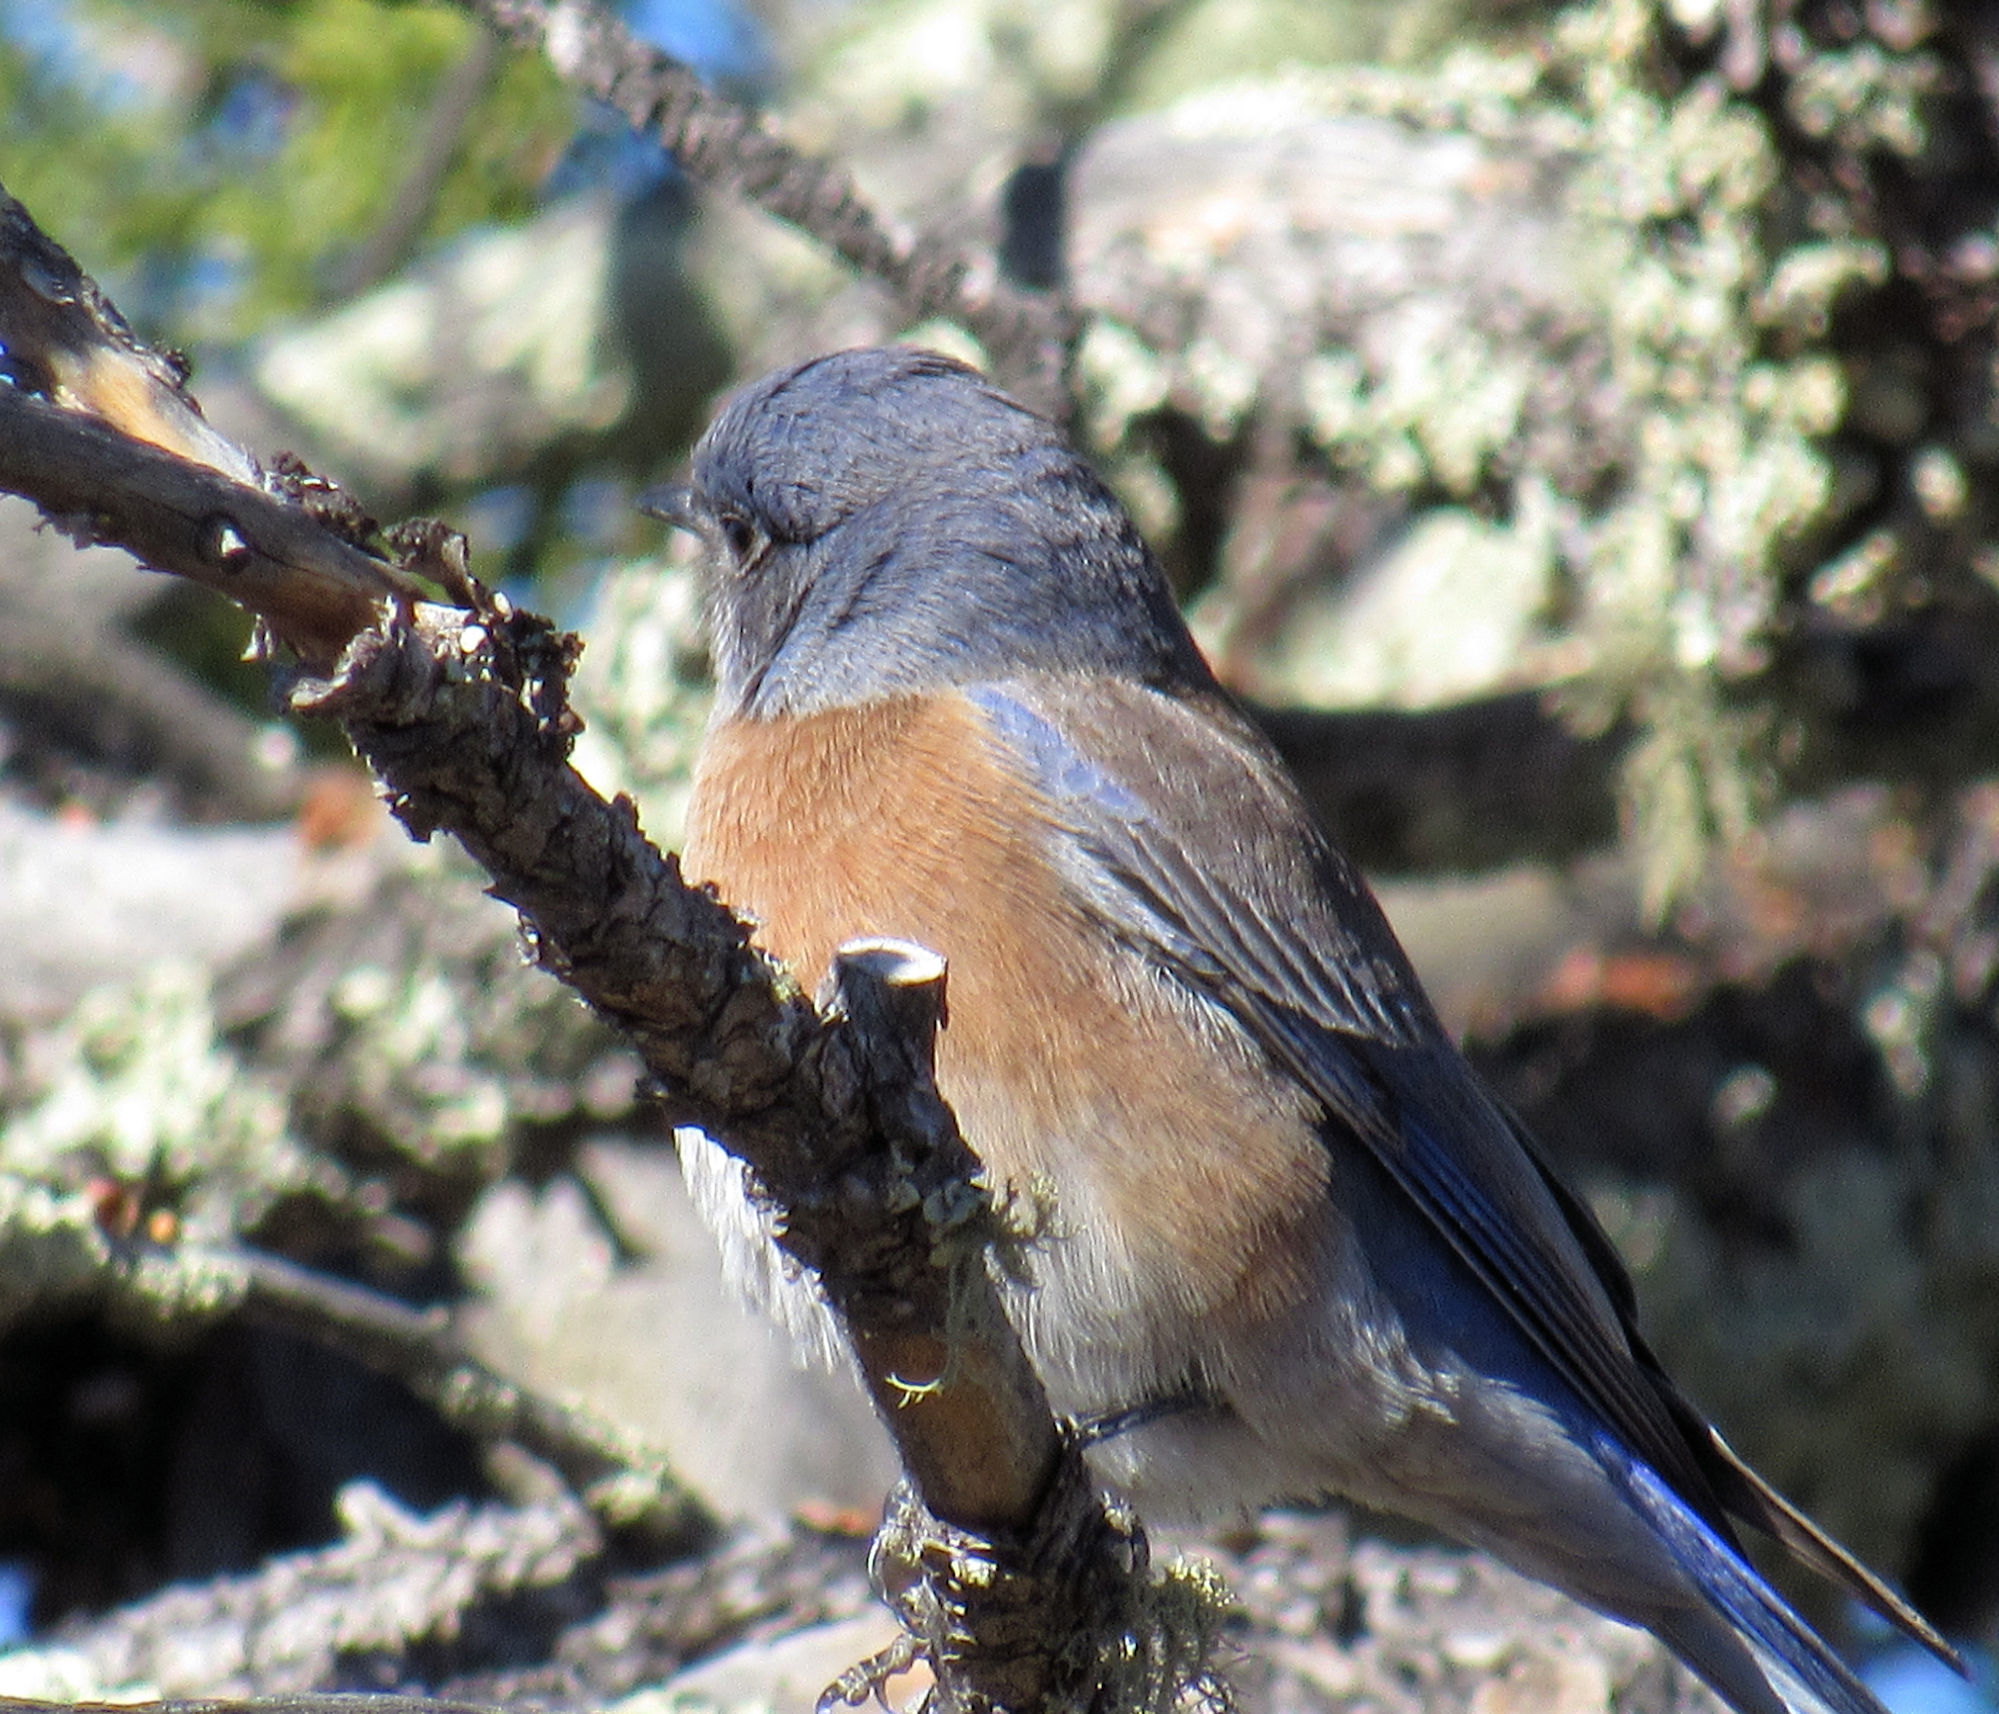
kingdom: Animalia
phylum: Chordata
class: Aves
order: Passeriformes
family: Turdidae
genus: Sialia
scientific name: Sialia mexicana
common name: Western bluebird
